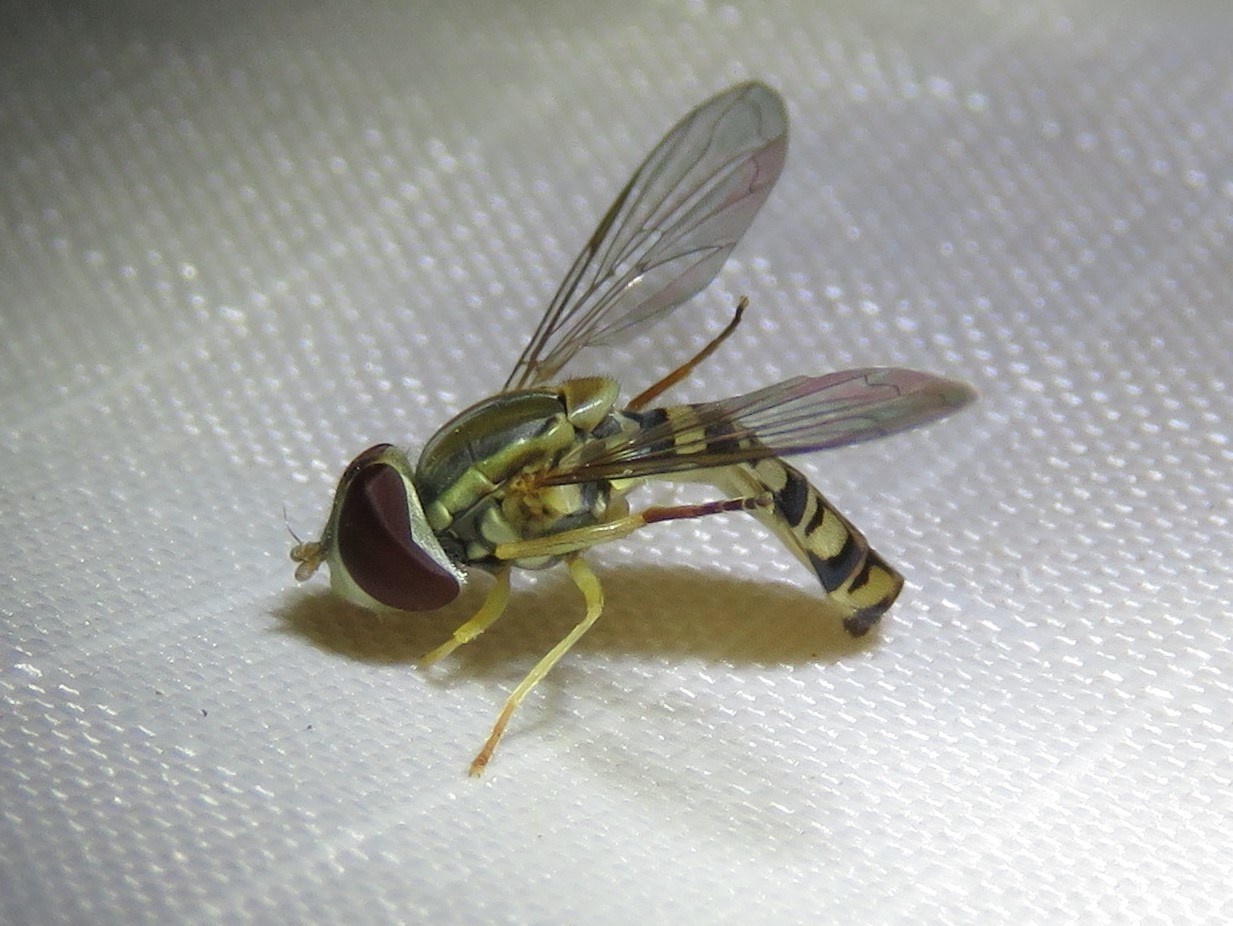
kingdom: Animalia
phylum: Arthropoda
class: Insecta
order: Diptera
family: Syrphidae
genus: Toxomerus
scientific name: Toxomerus politus
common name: Maize calligrapher
